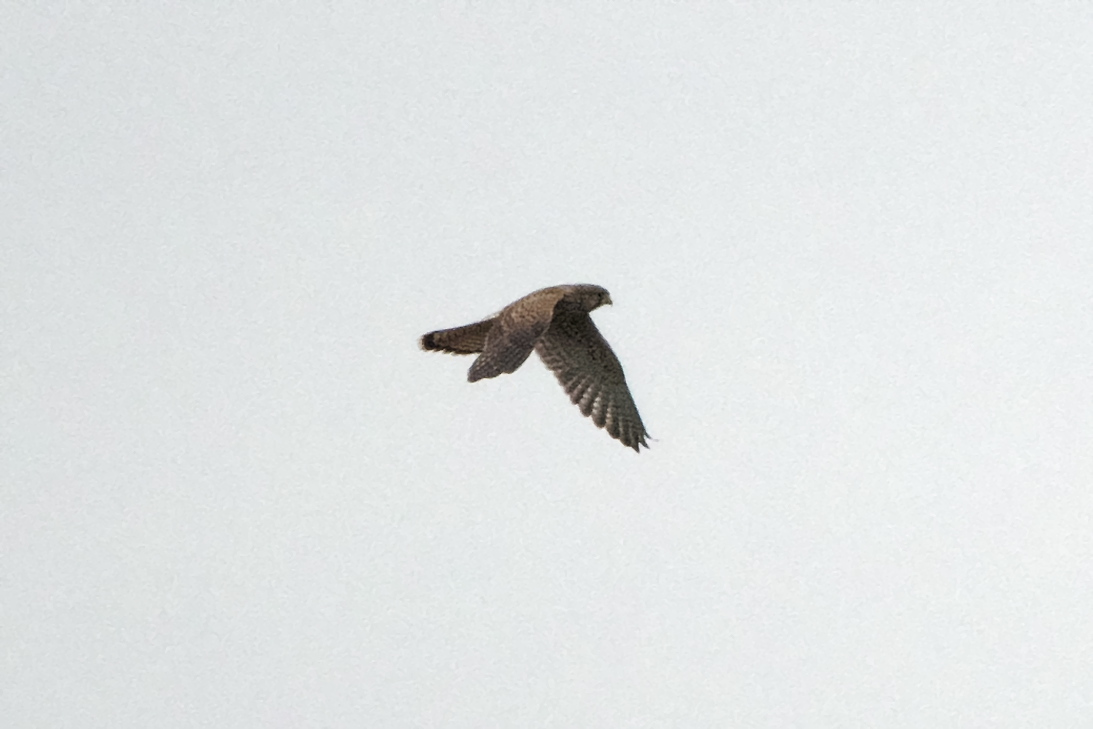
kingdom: Animalia
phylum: Chordata
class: Aves
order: Falconiformes
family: Falconidae
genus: Falco
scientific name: Falco tinnunculus
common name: Common kestrel
